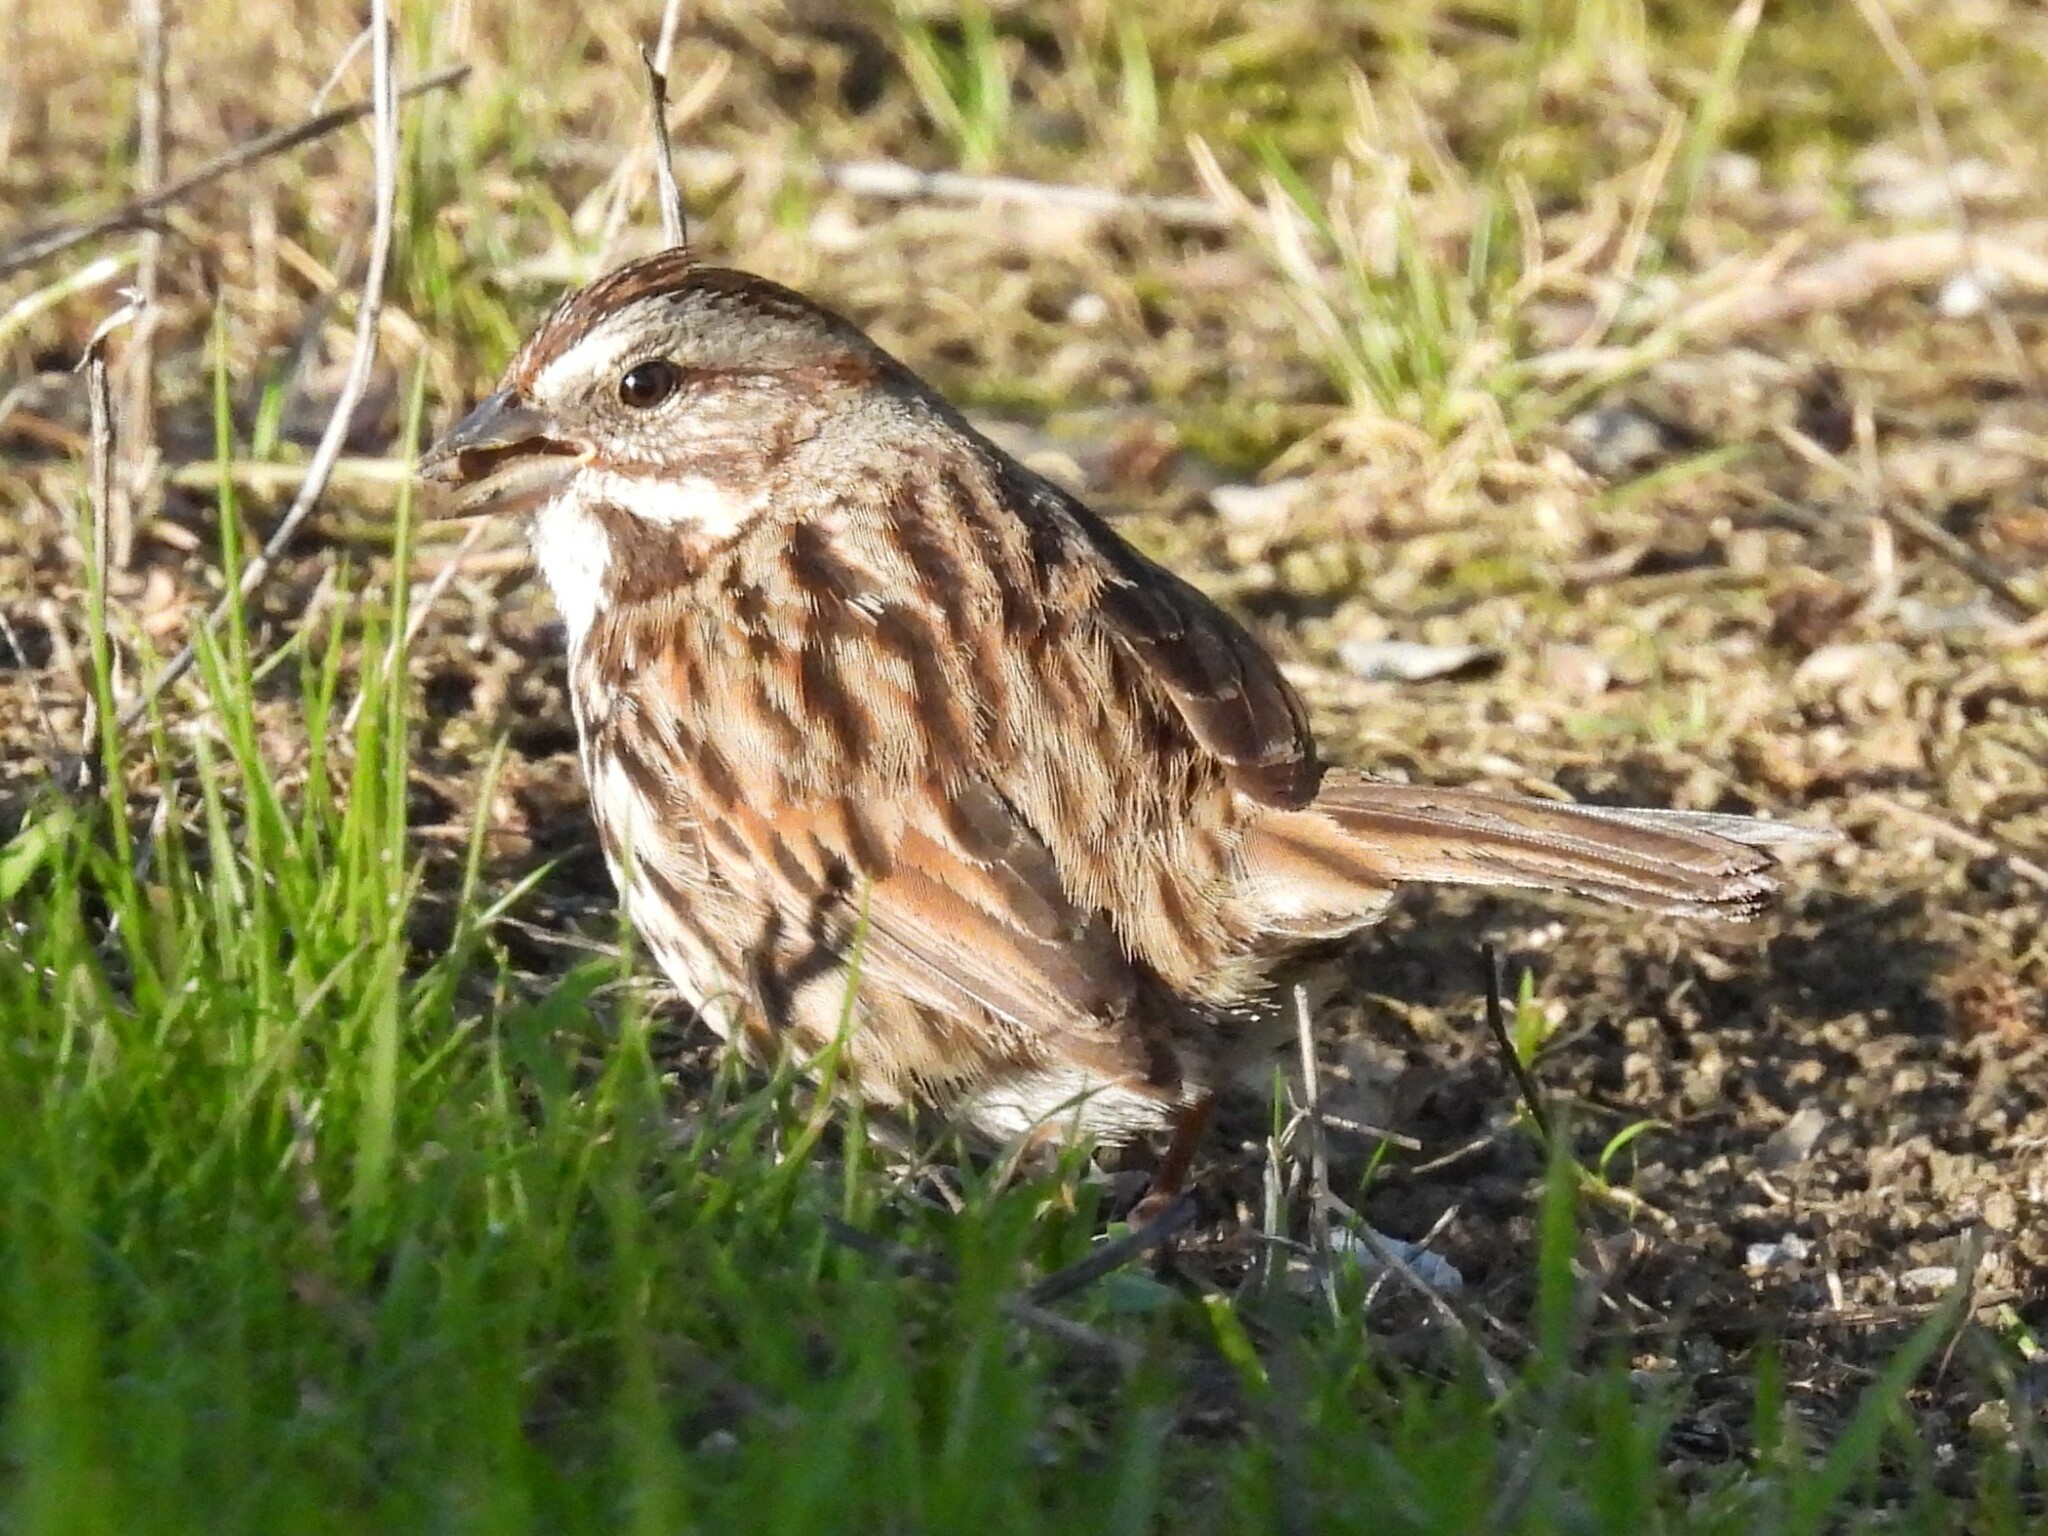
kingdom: Animalia
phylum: Chordata
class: Aves
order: Passeriformes
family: Passerellidae
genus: Melospiza
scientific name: Melospiza melodia
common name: Song sparrow
